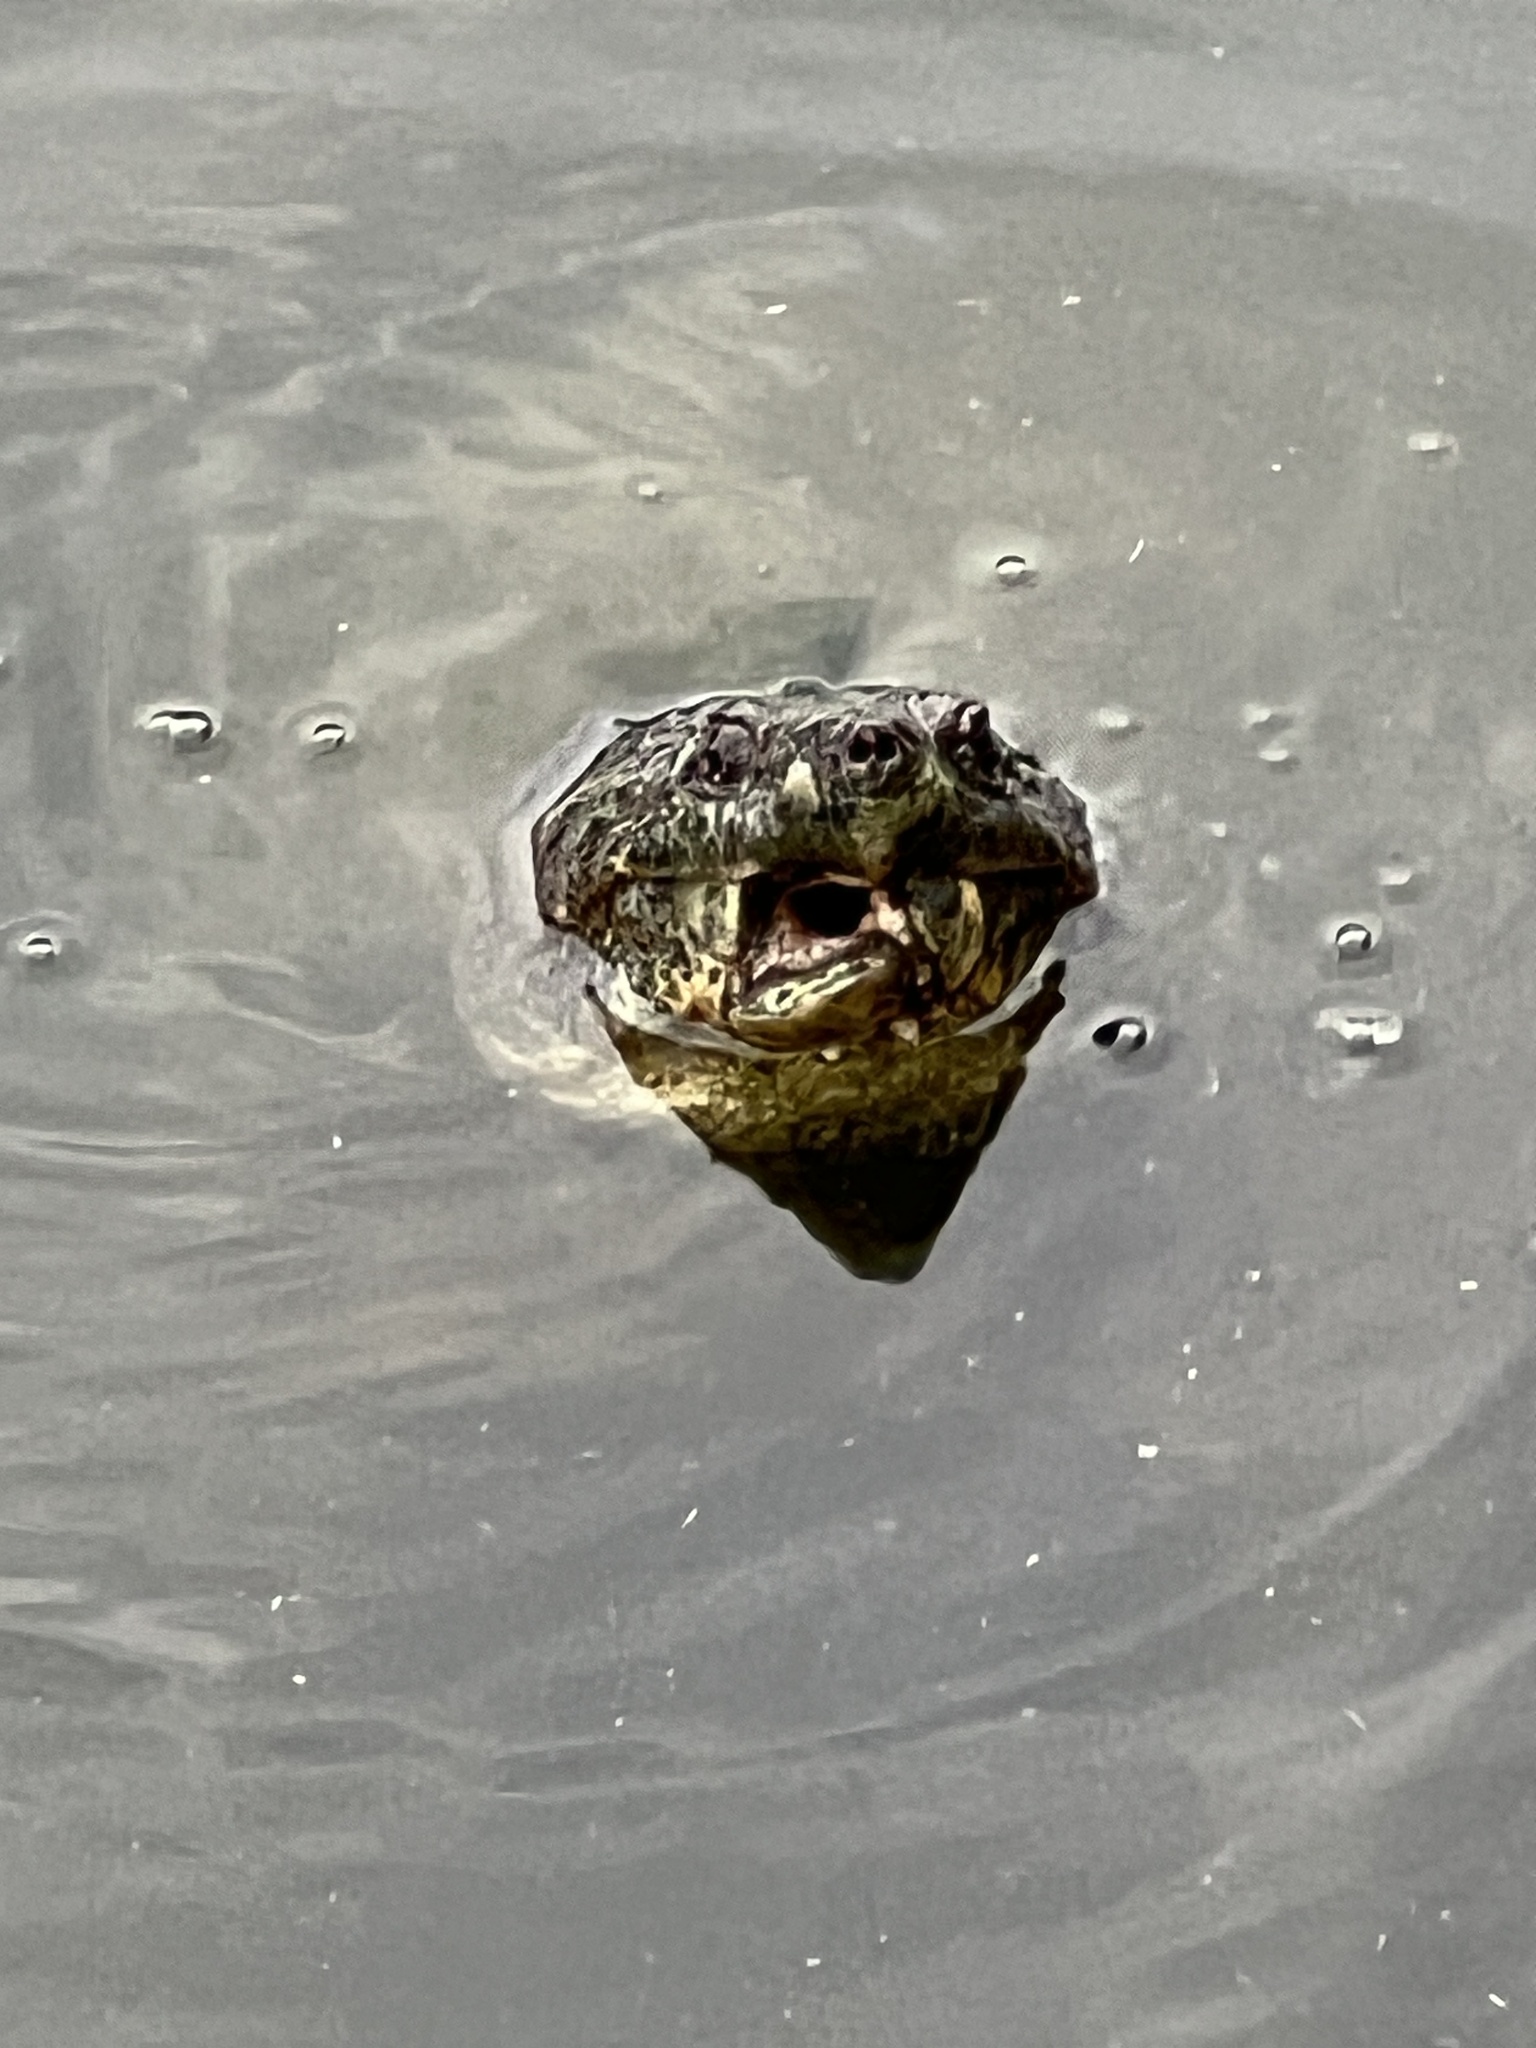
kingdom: Animalia
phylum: Chordata
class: Testudines
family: Chelydridae
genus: Chelydra
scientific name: Chelydra serpentina
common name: Common snapping turtle
